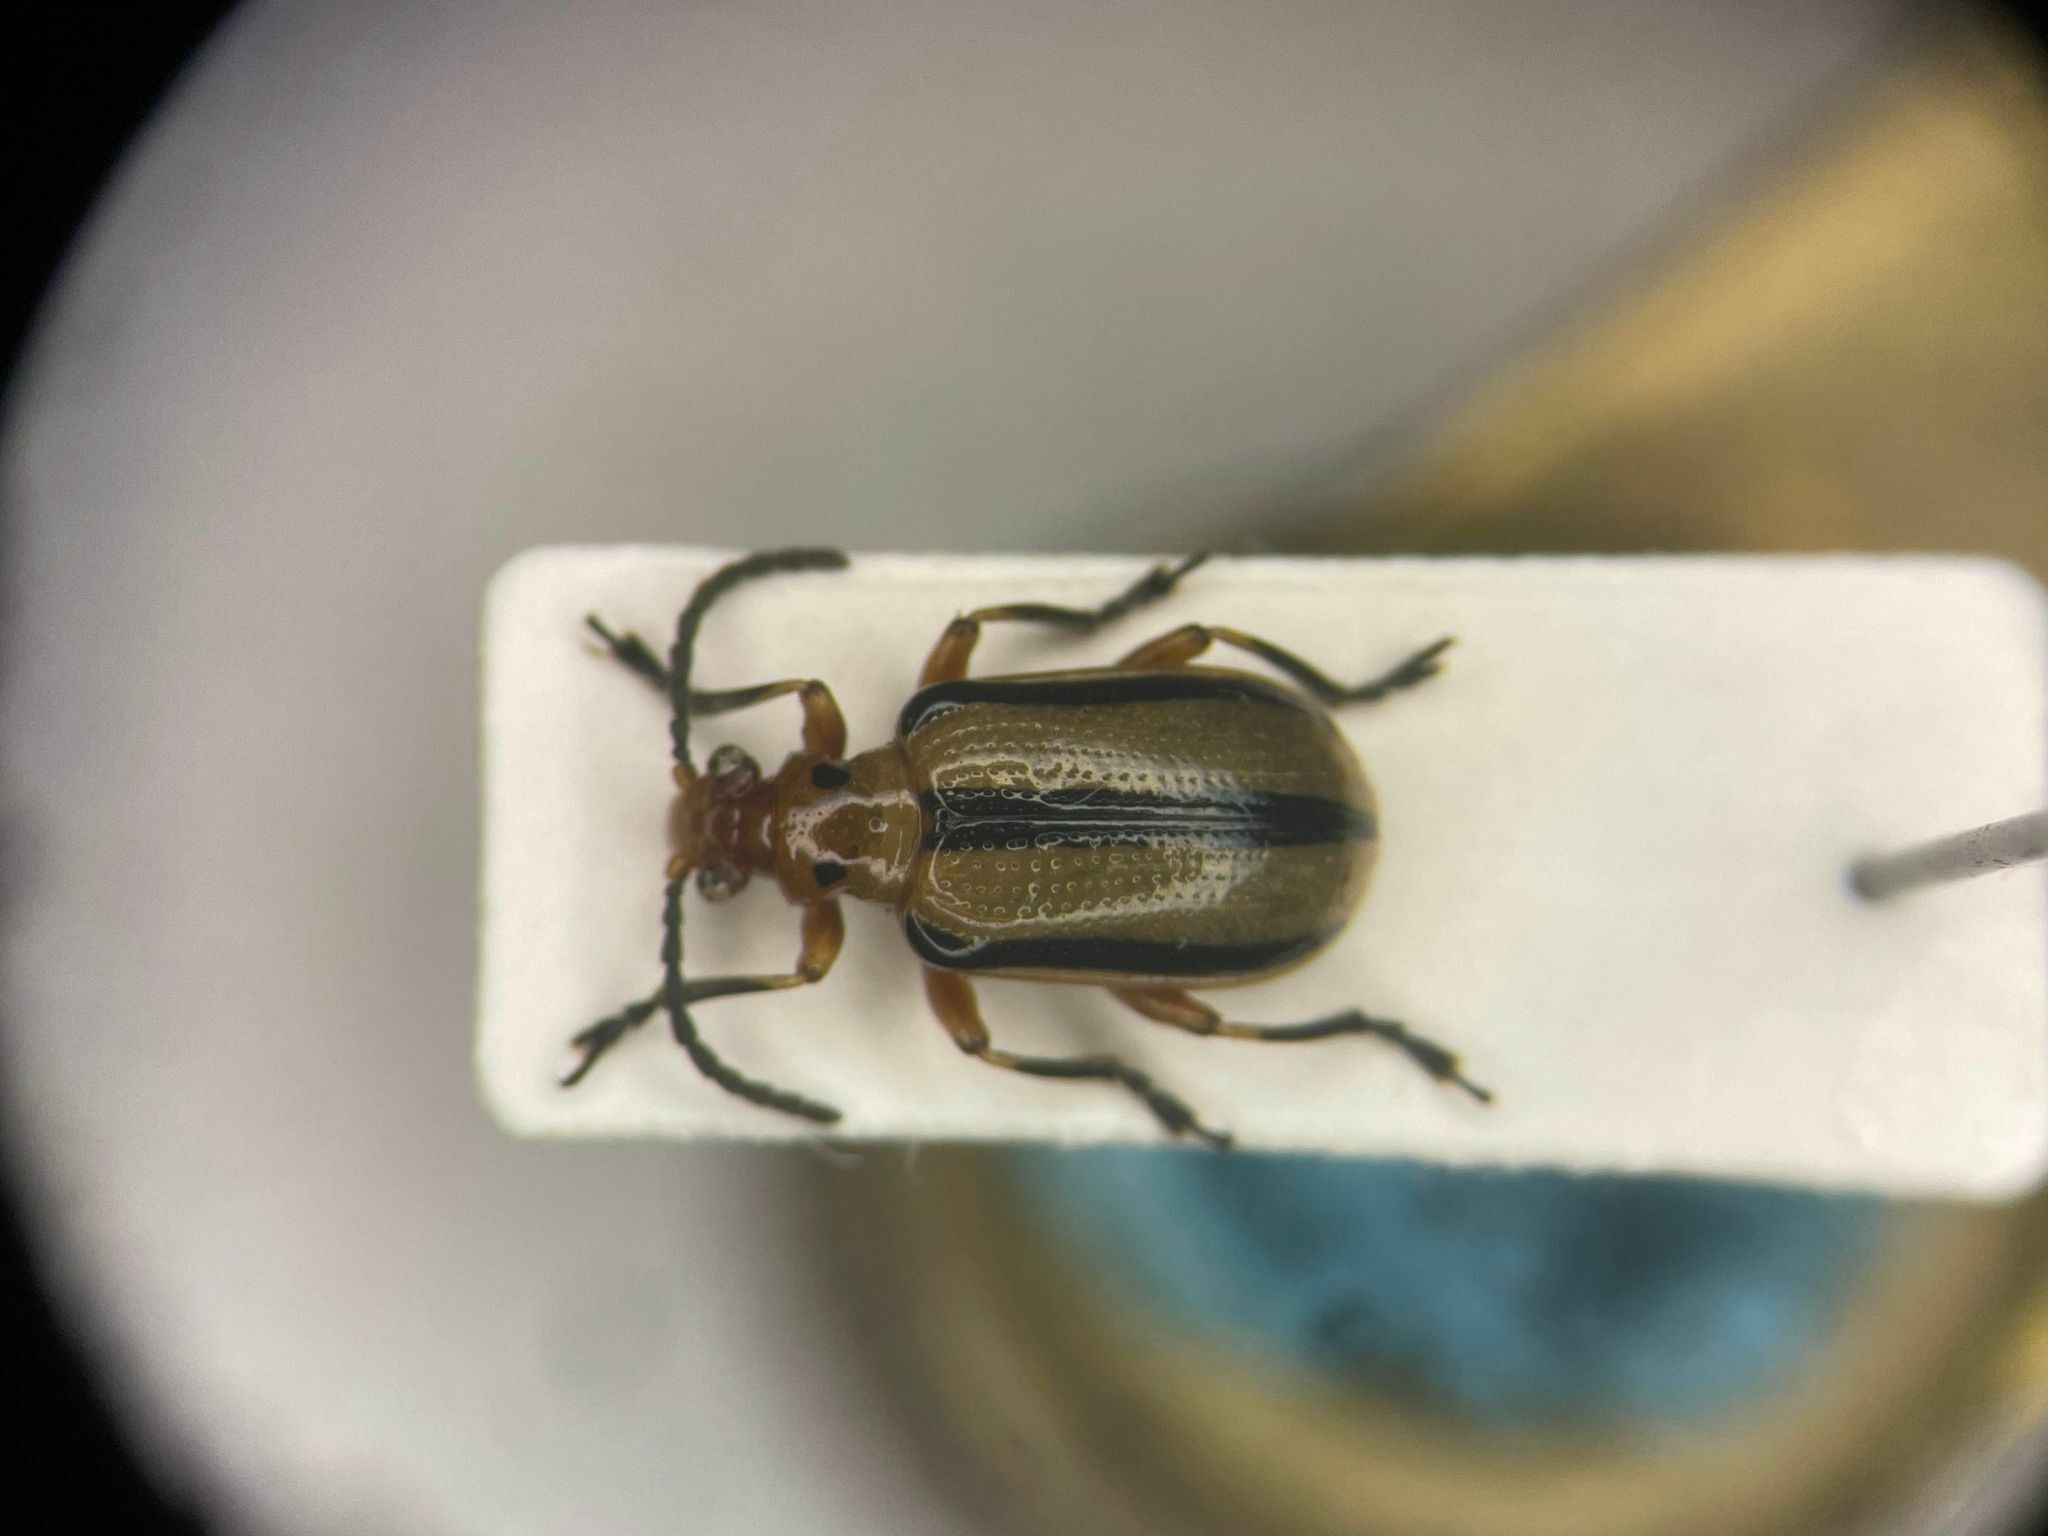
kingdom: Animalia
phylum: Arthropoda
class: Insecta
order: Coleoptera
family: Chrysomelidae
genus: Lema
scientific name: Lema daturaphila
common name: Leaf beetle
